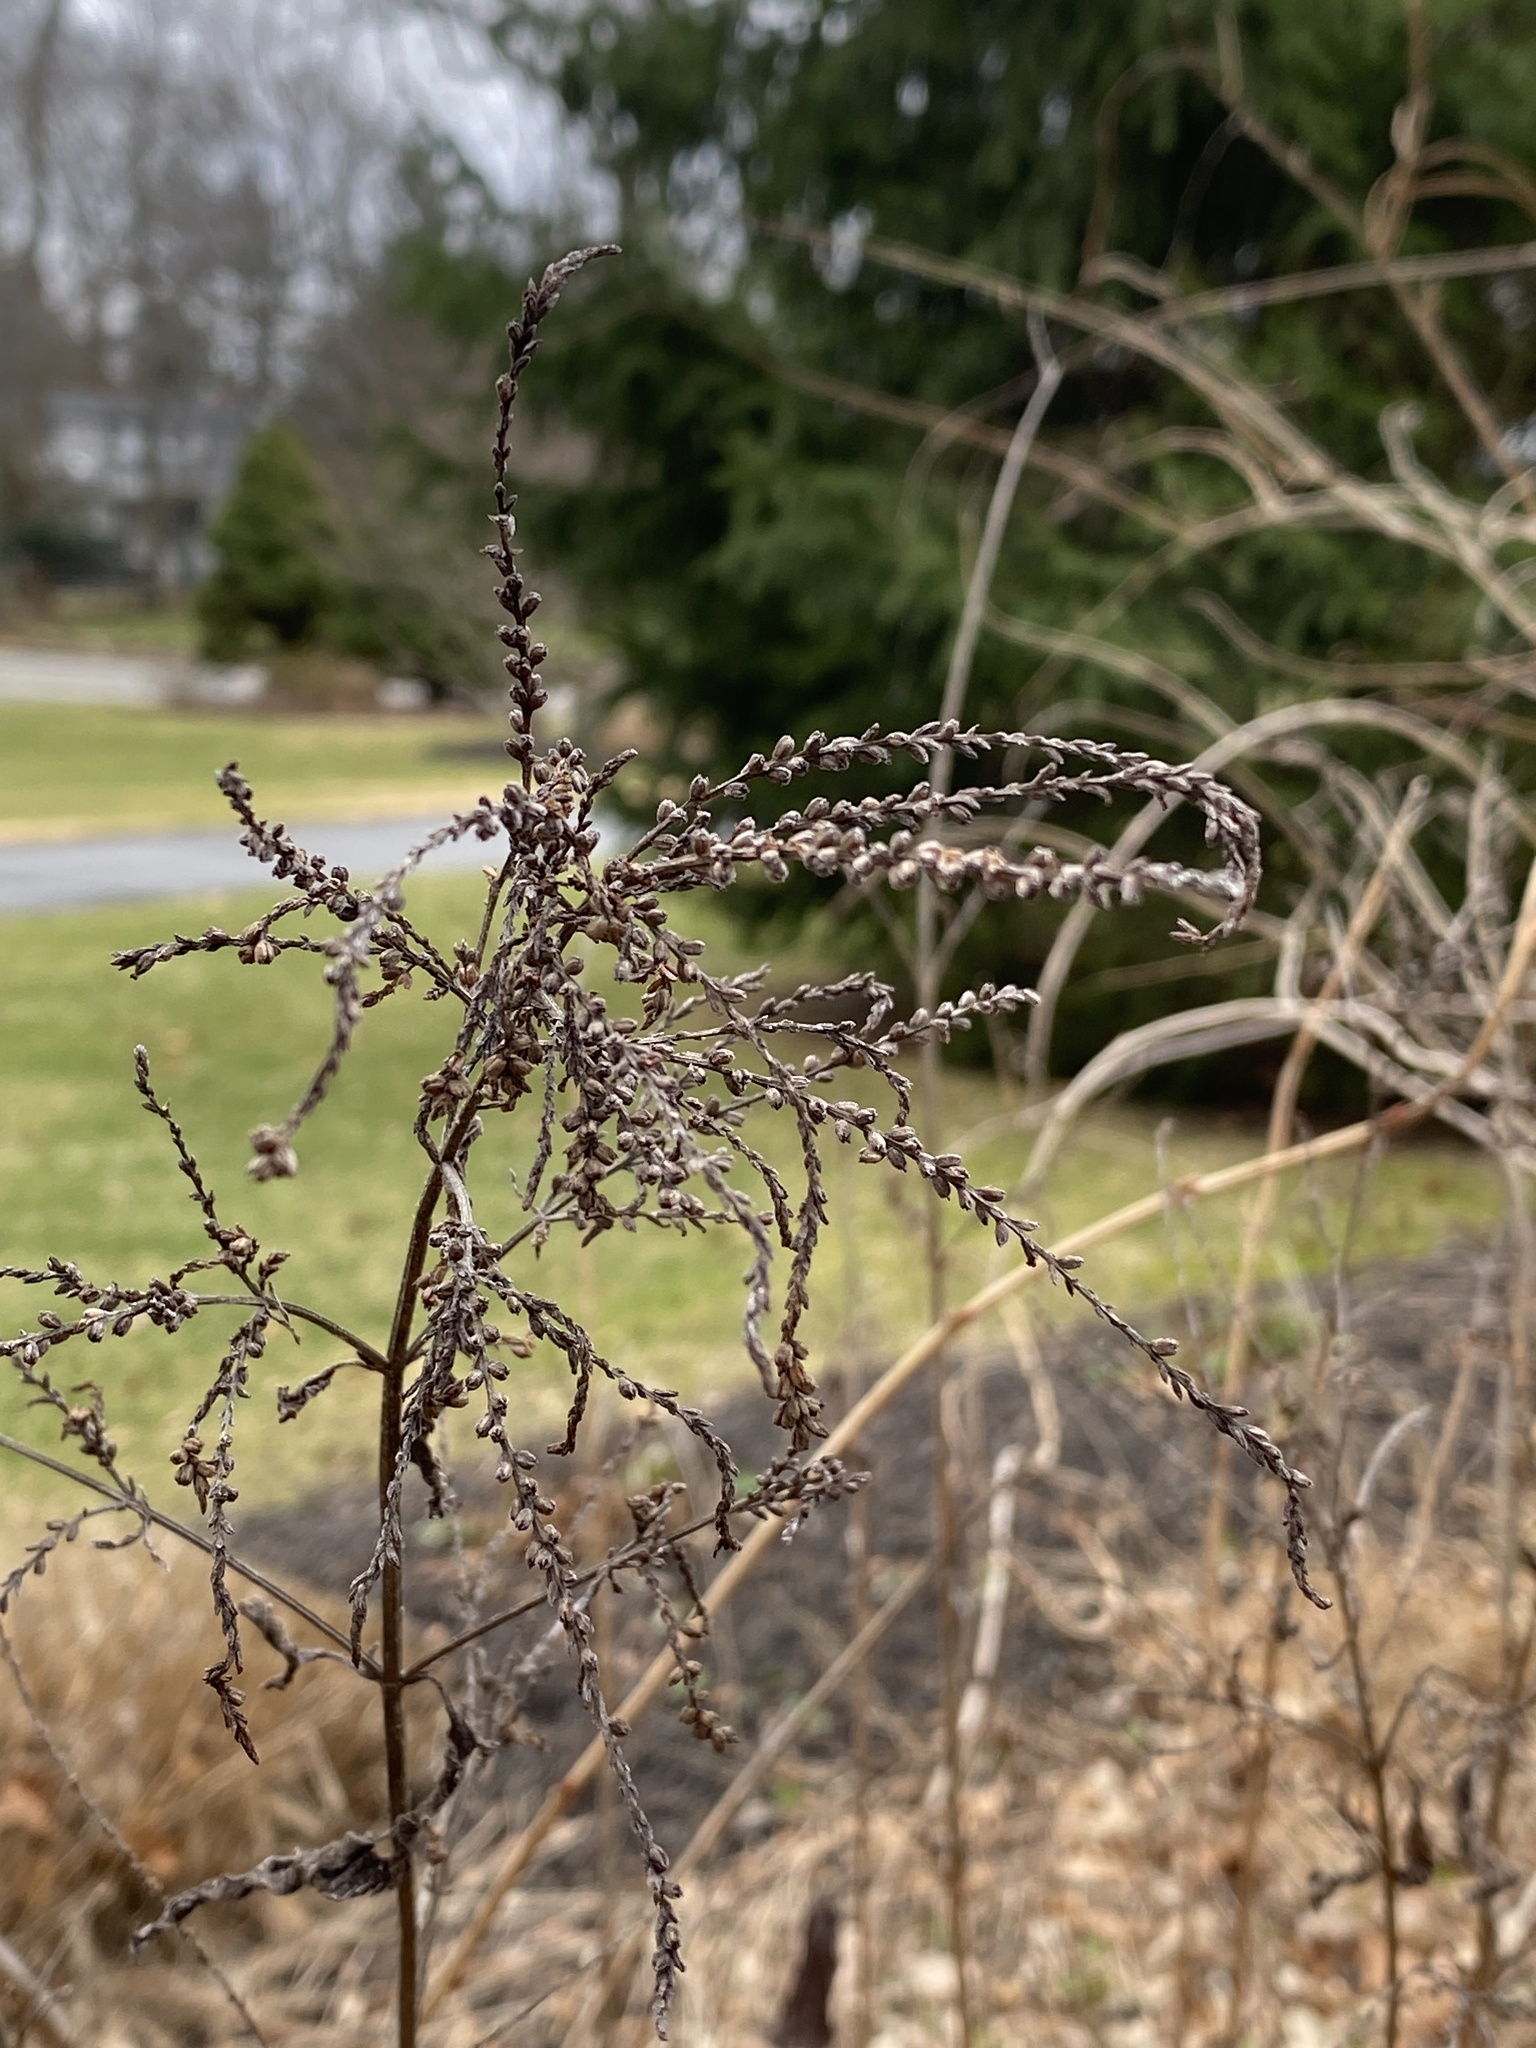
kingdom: Plantae
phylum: Tracheophyta
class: Magnoliopsida
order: Lamiales
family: Verbenaceae
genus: Verbena
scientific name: Verbena urticifolia
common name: Nettle-leaved vervain
